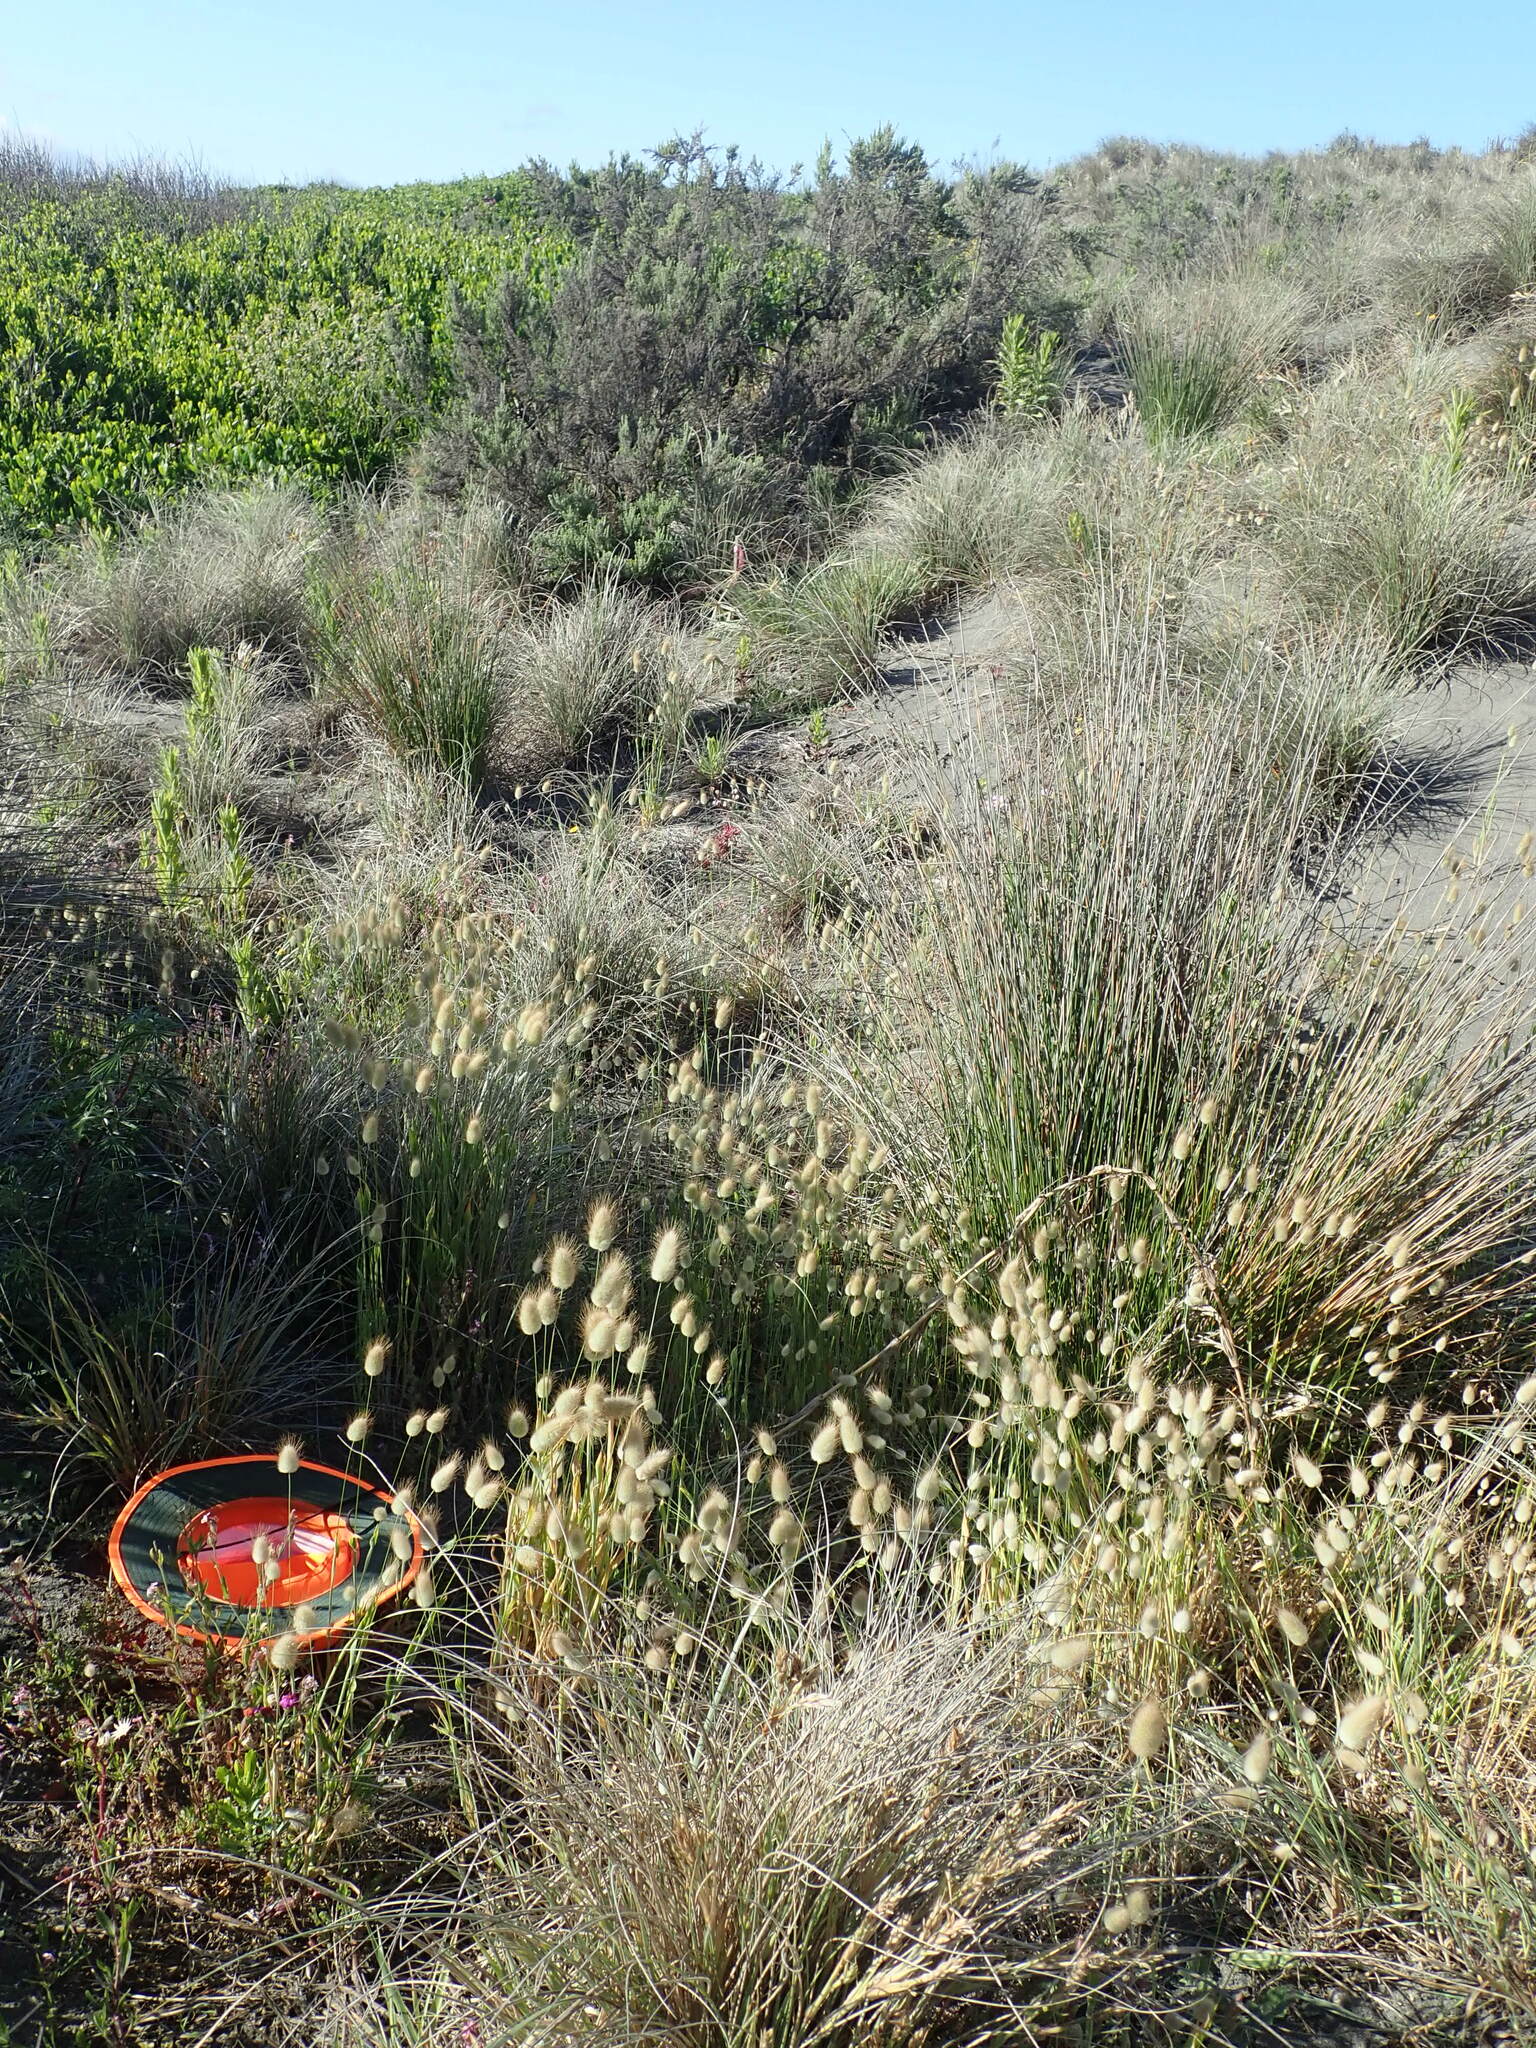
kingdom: Plantae
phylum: Tracheophyta
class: Magnoliopsida
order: Caryophyllales
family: Caryophyllaceae
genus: Silene
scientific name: Silene gallica
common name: Small-flowered catchfly
